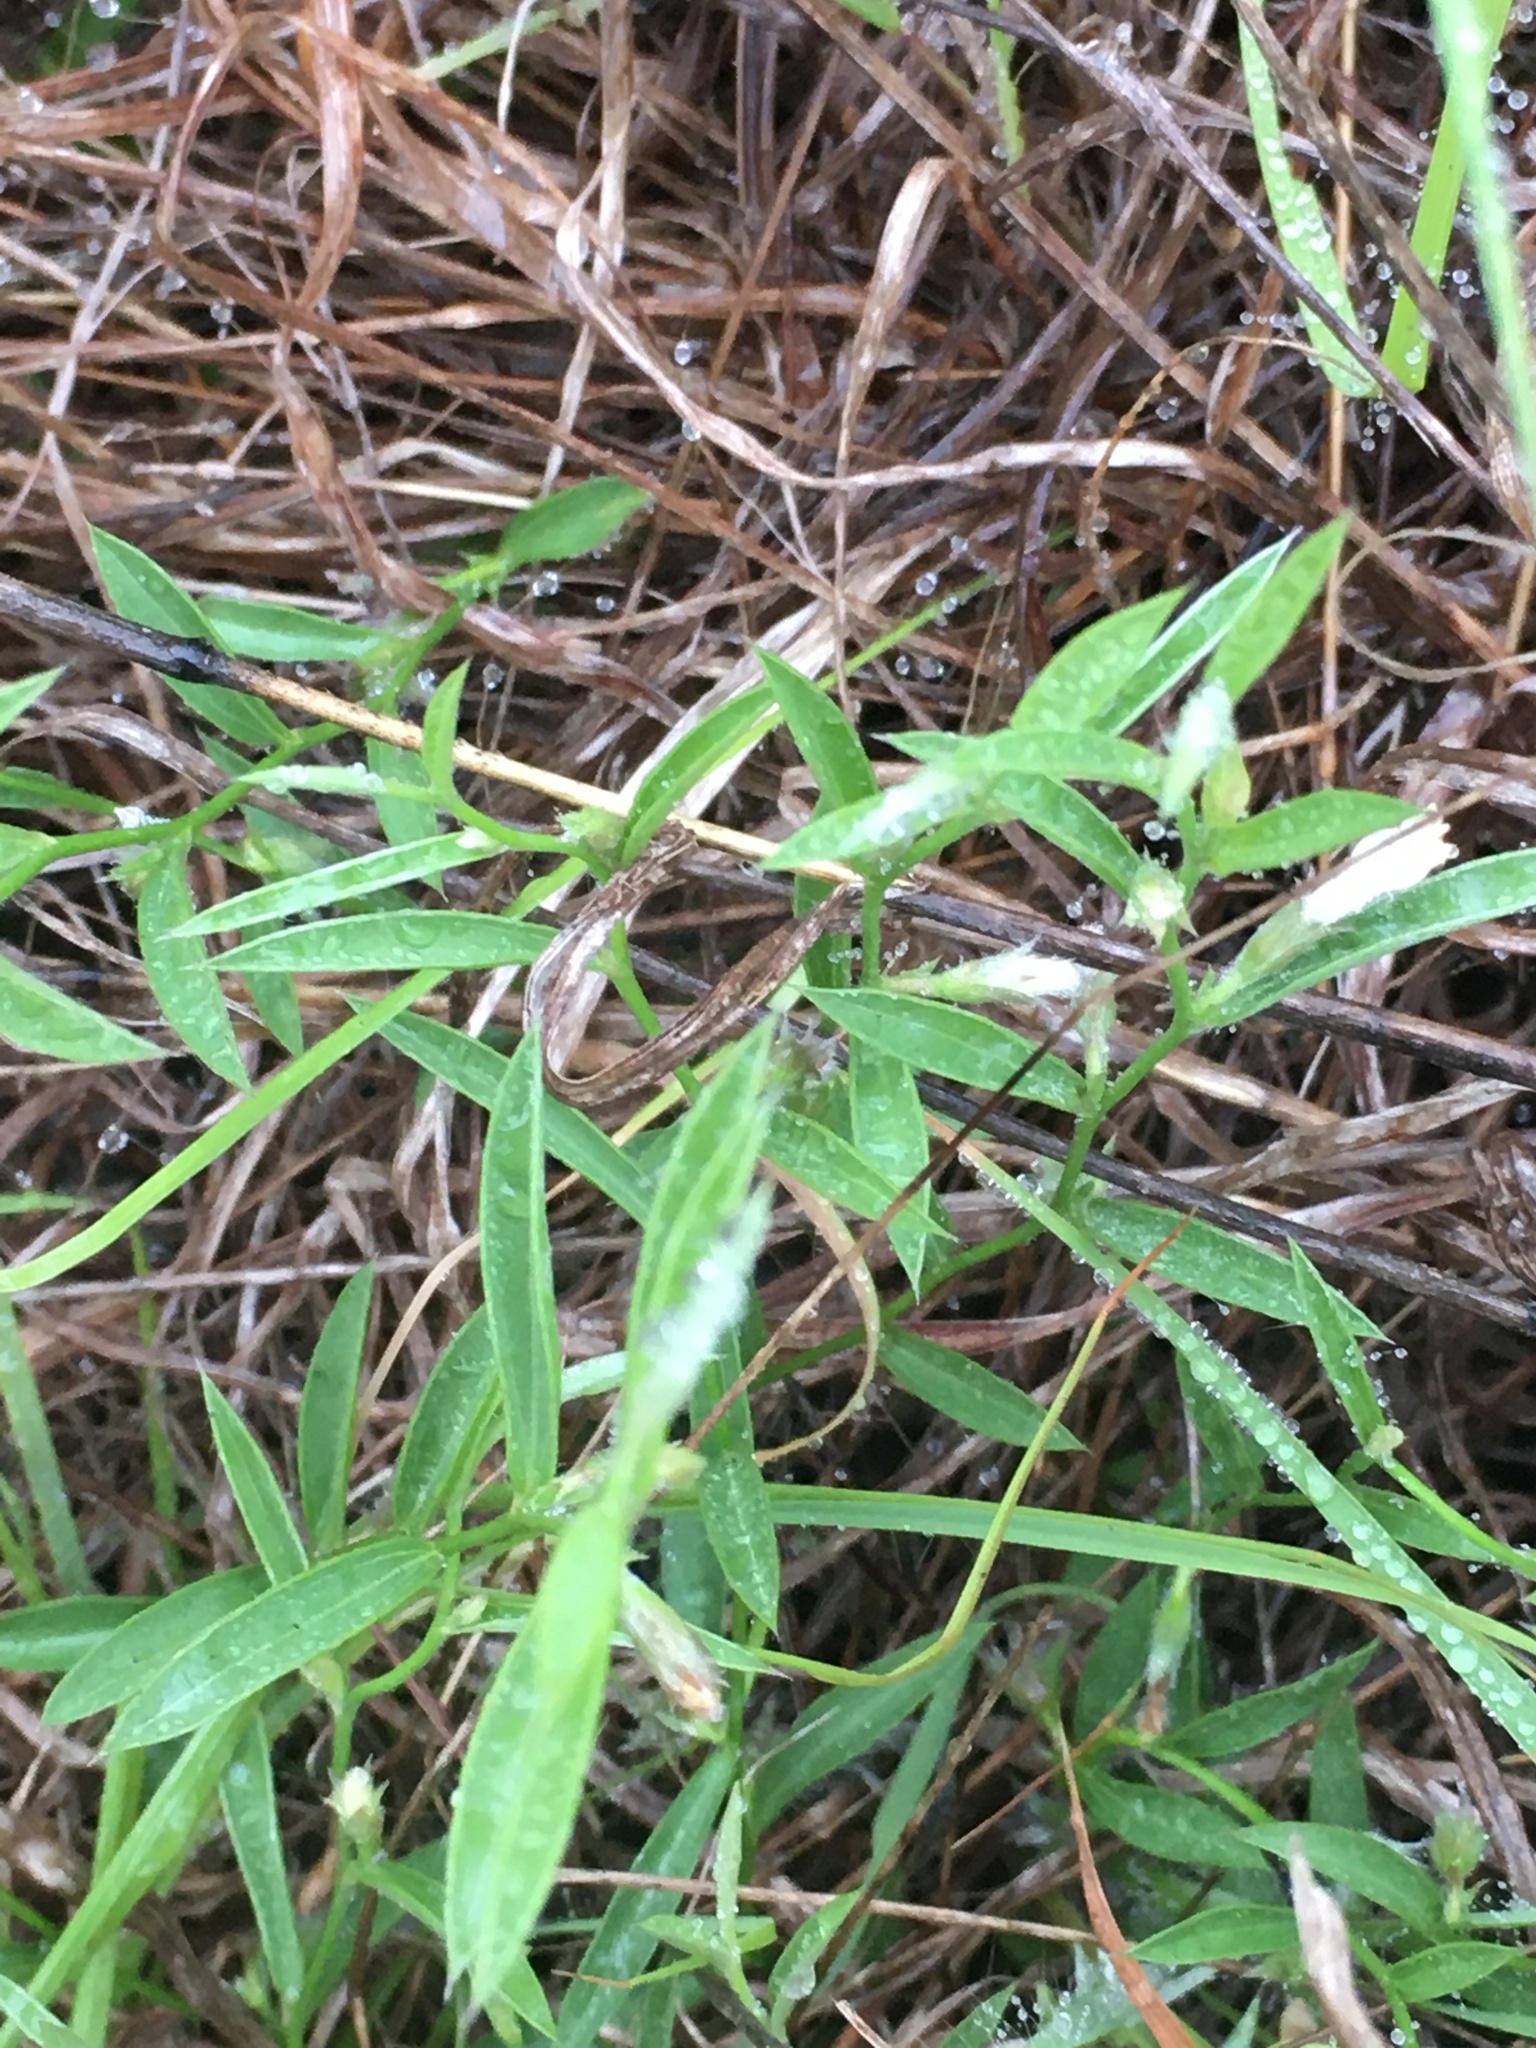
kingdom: Plantae
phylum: Tracheophyta
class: Magnoliopsida
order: Solanales
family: Convolvulaceae
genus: Evolvulus
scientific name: Evolvulus sericeus
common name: Blue dots
